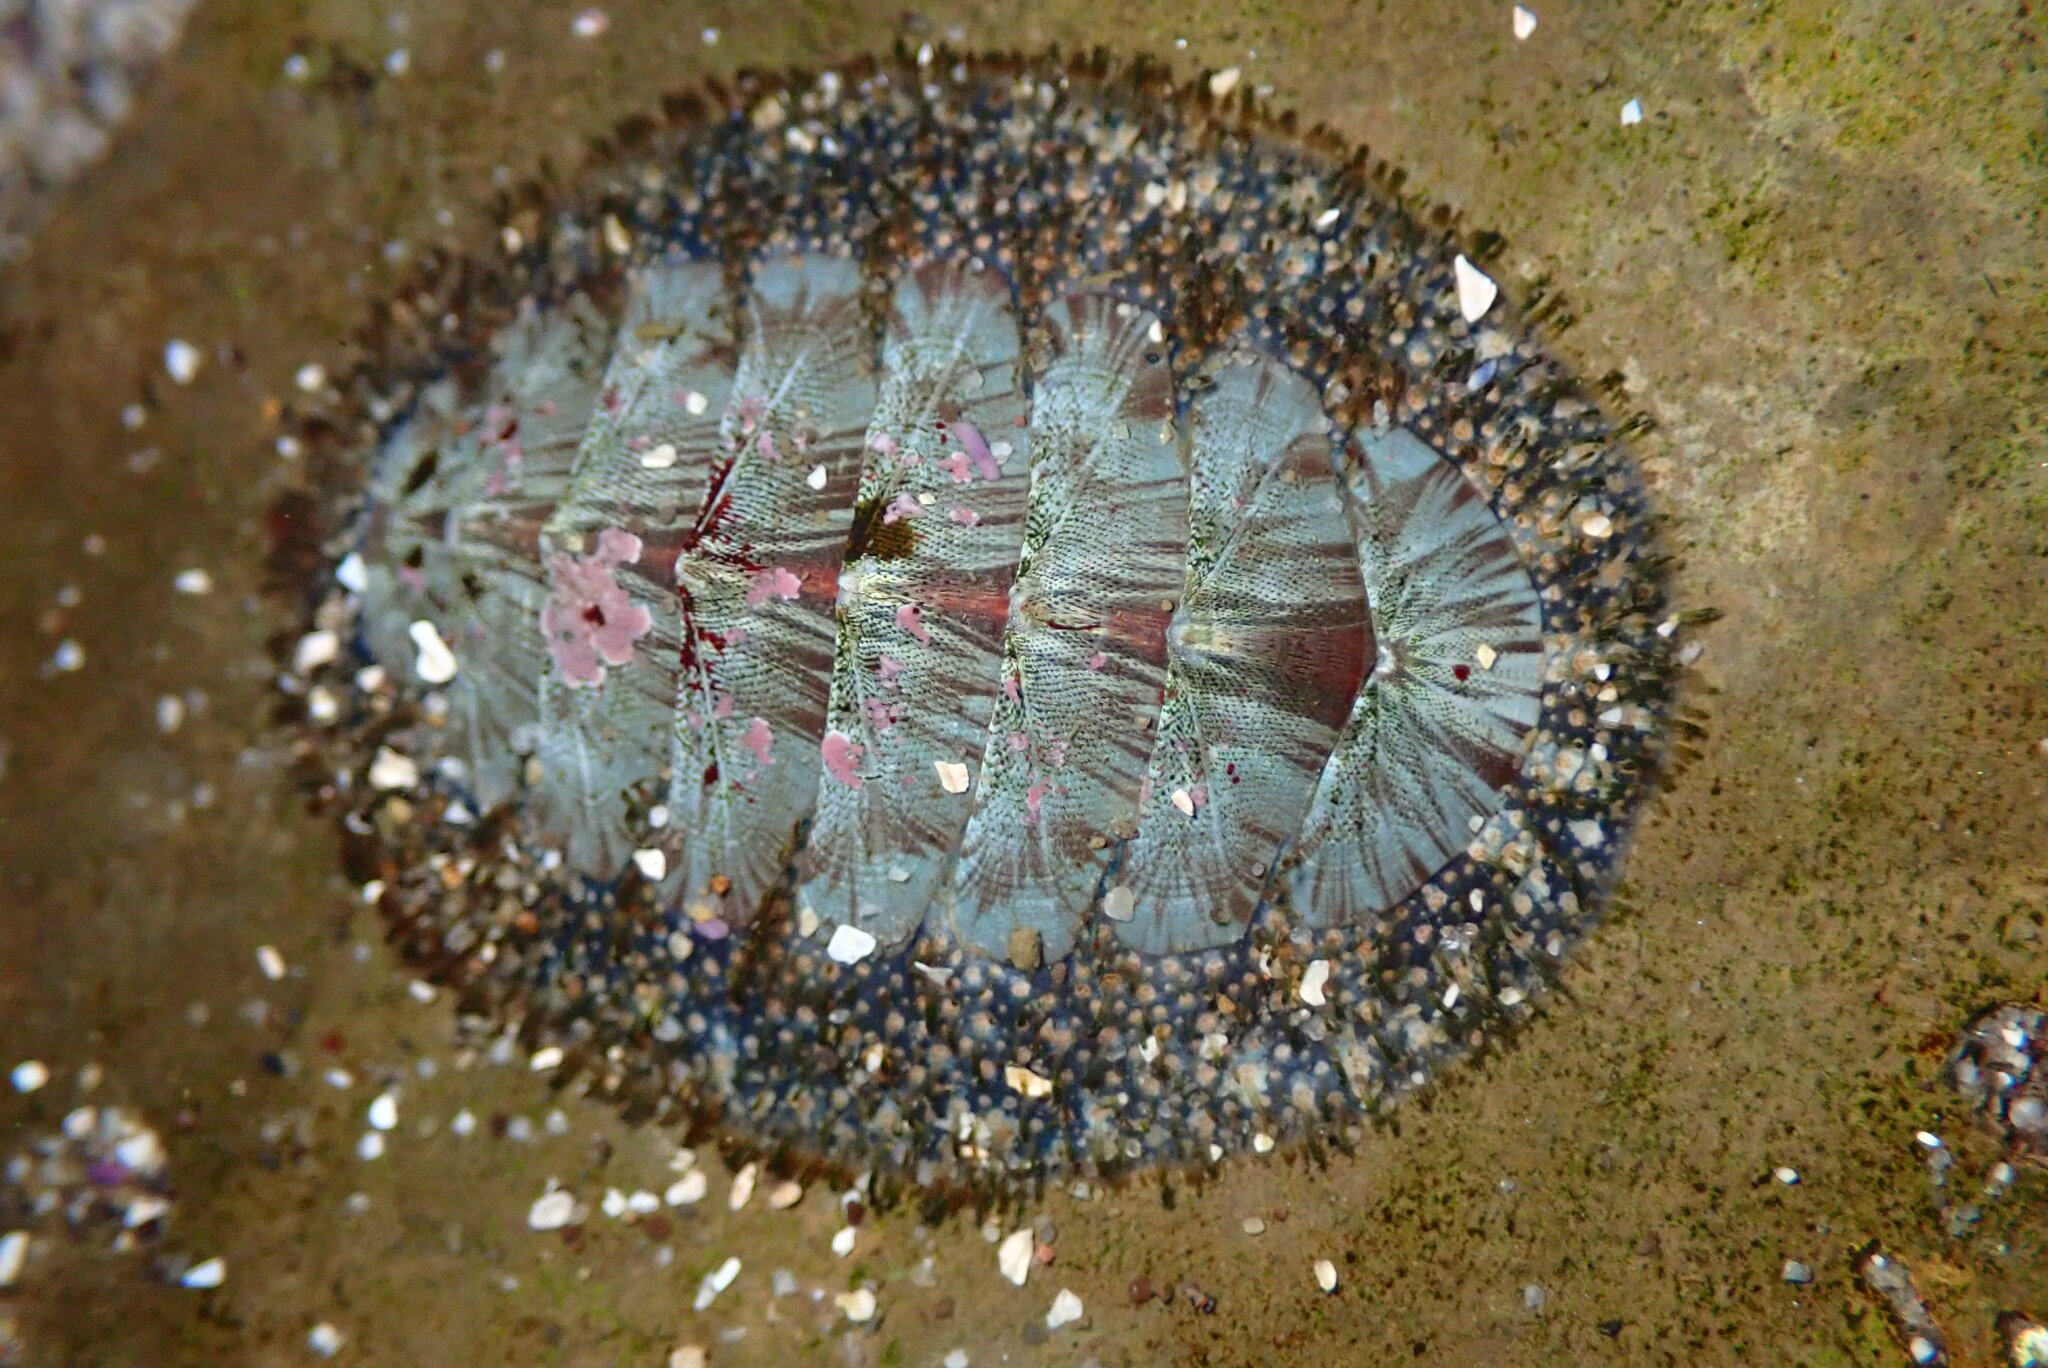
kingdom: Animalia
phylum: Mollusca
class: Polyplacophora
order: Chitonida
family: Mopaliidae
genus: Mopalia
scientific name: Mopalia lignosa
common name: Woody chiton
